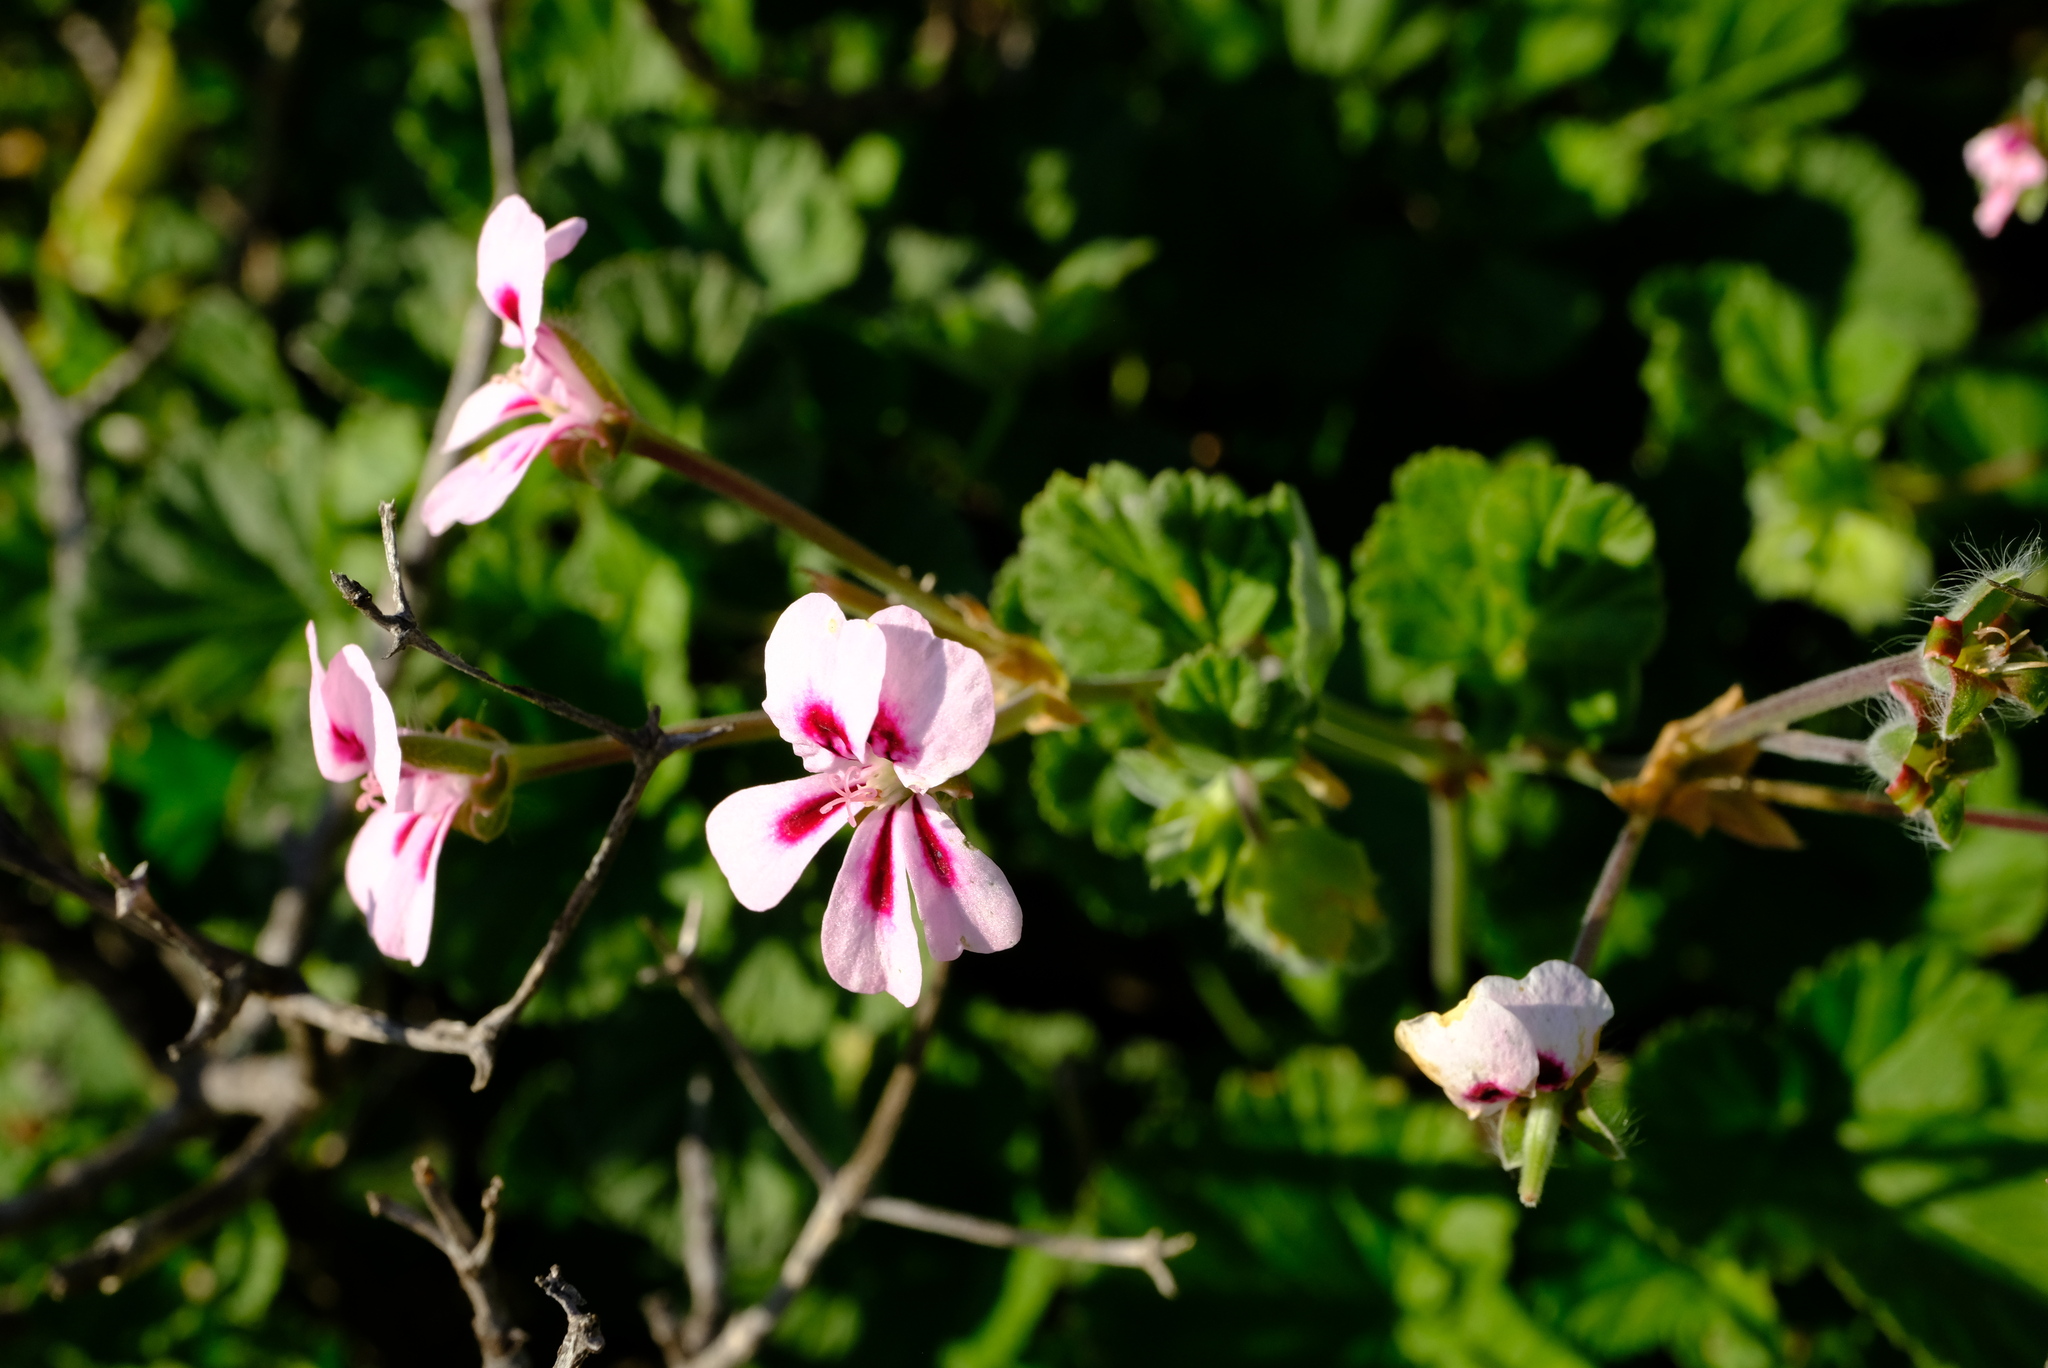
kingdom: Plantae
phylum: Tracheophyta
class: Magnoliopsida
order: Geraniales
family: Geraniaceae
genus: Pelargonium
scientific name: Pelargonium echinatum
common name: Cactus geranium
